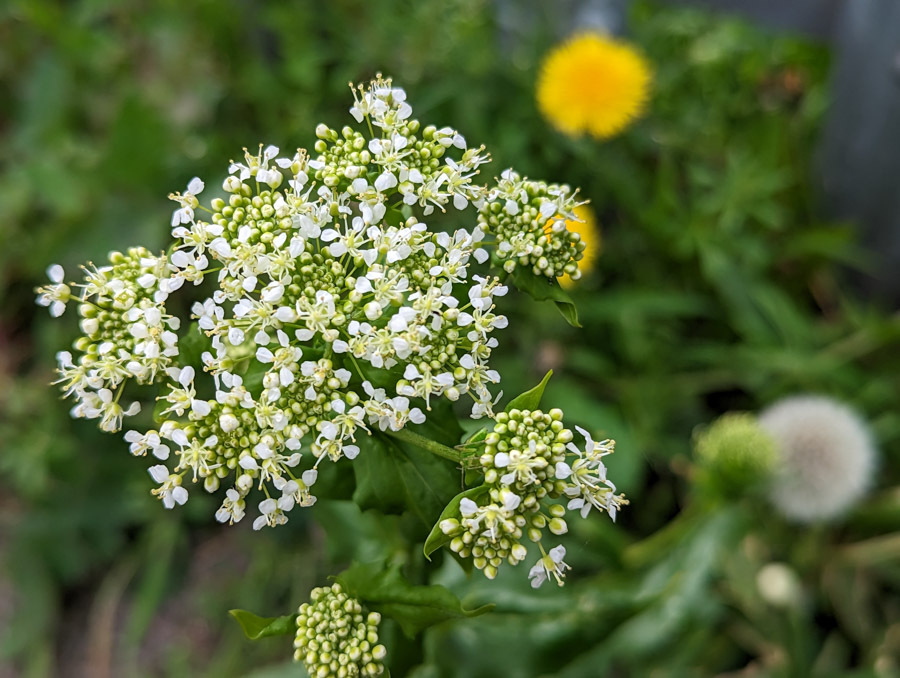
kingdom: Plantae
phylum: Tracheophyta
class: Magnoliopsida
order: Brassicales
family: Brassicaceae
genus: Lepidium
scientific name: Lepidium draba
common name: Hoary cress
